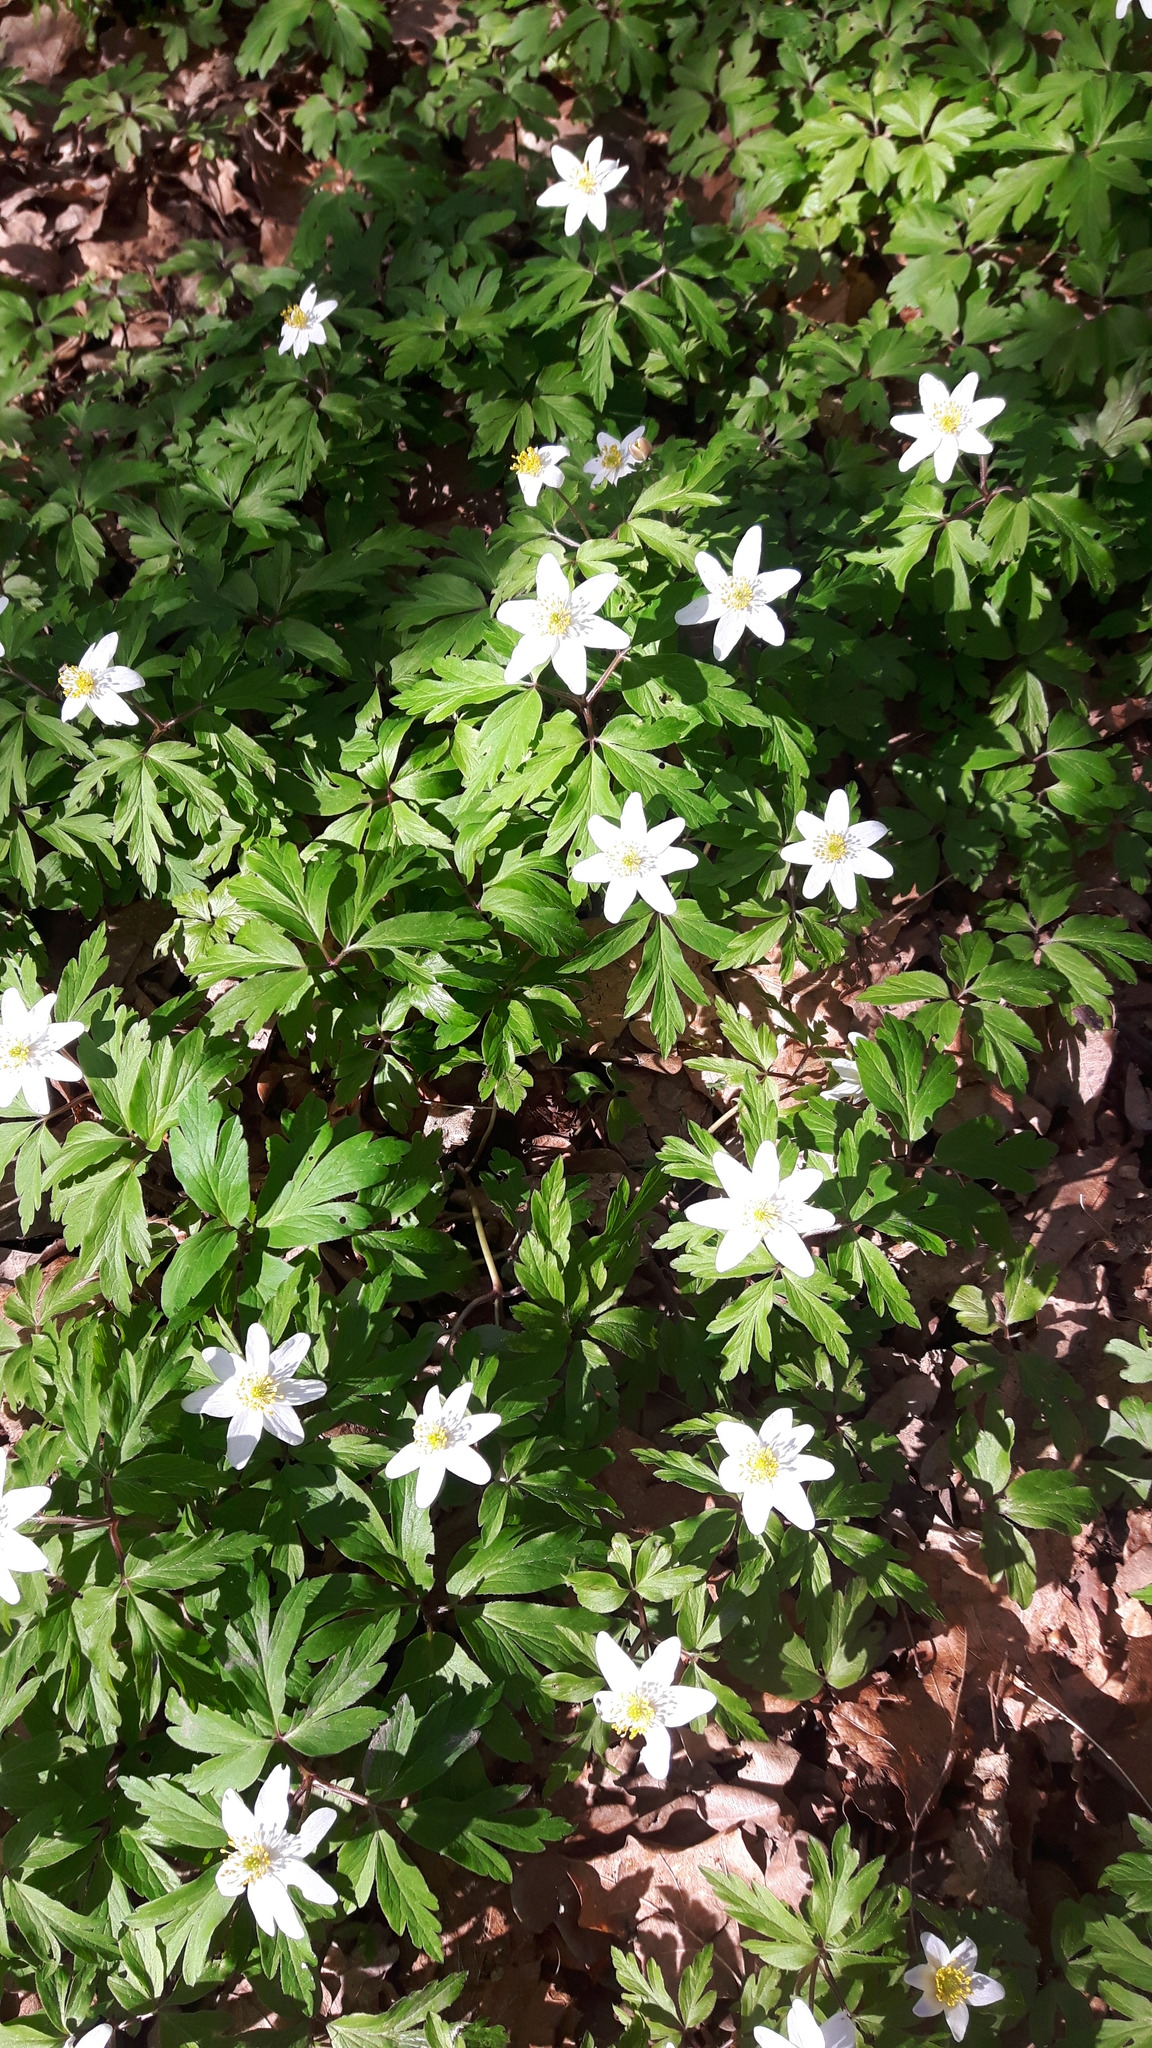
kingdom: Plantae
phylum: Tracheophyta
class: Magnoliopsida
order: Ranunculales
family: Ranunculaceae
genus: Anemone
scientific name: Anemone nemorosa
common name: Wood anemone
